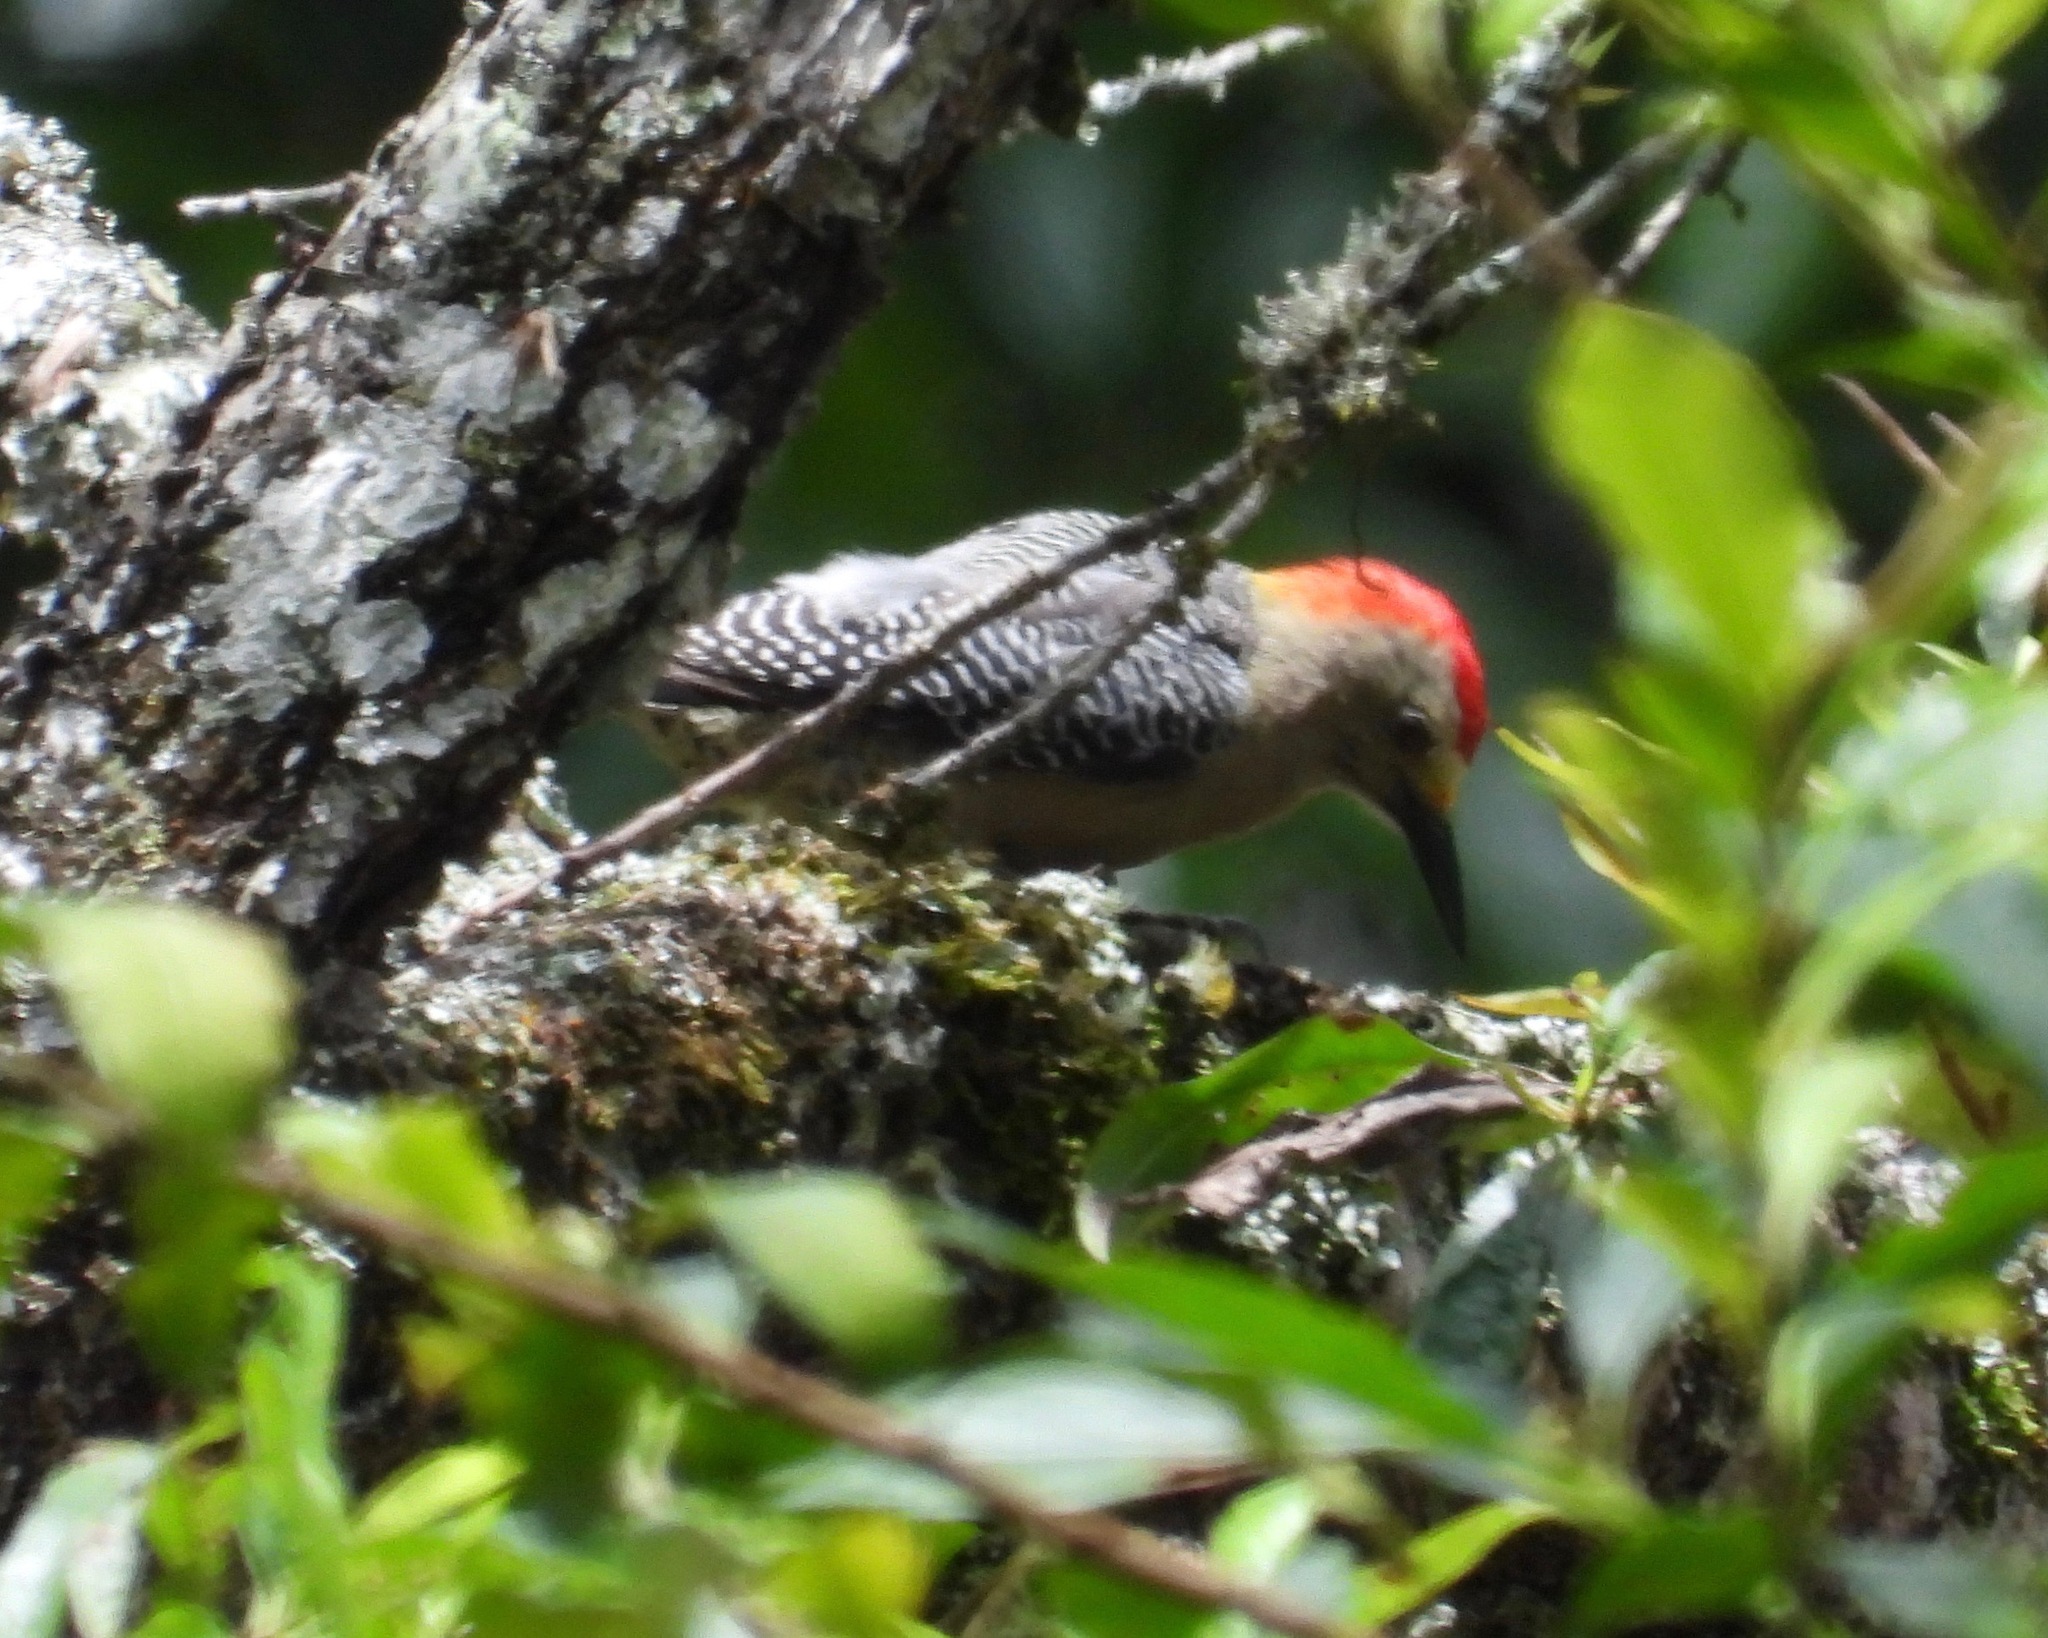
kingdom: Animalia
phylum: Chordata
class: Aves
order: Piciformes
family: Picidae
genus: Melanerpes
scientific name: Melanerpes aurifrons
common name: Golden-fronted woodpecker
